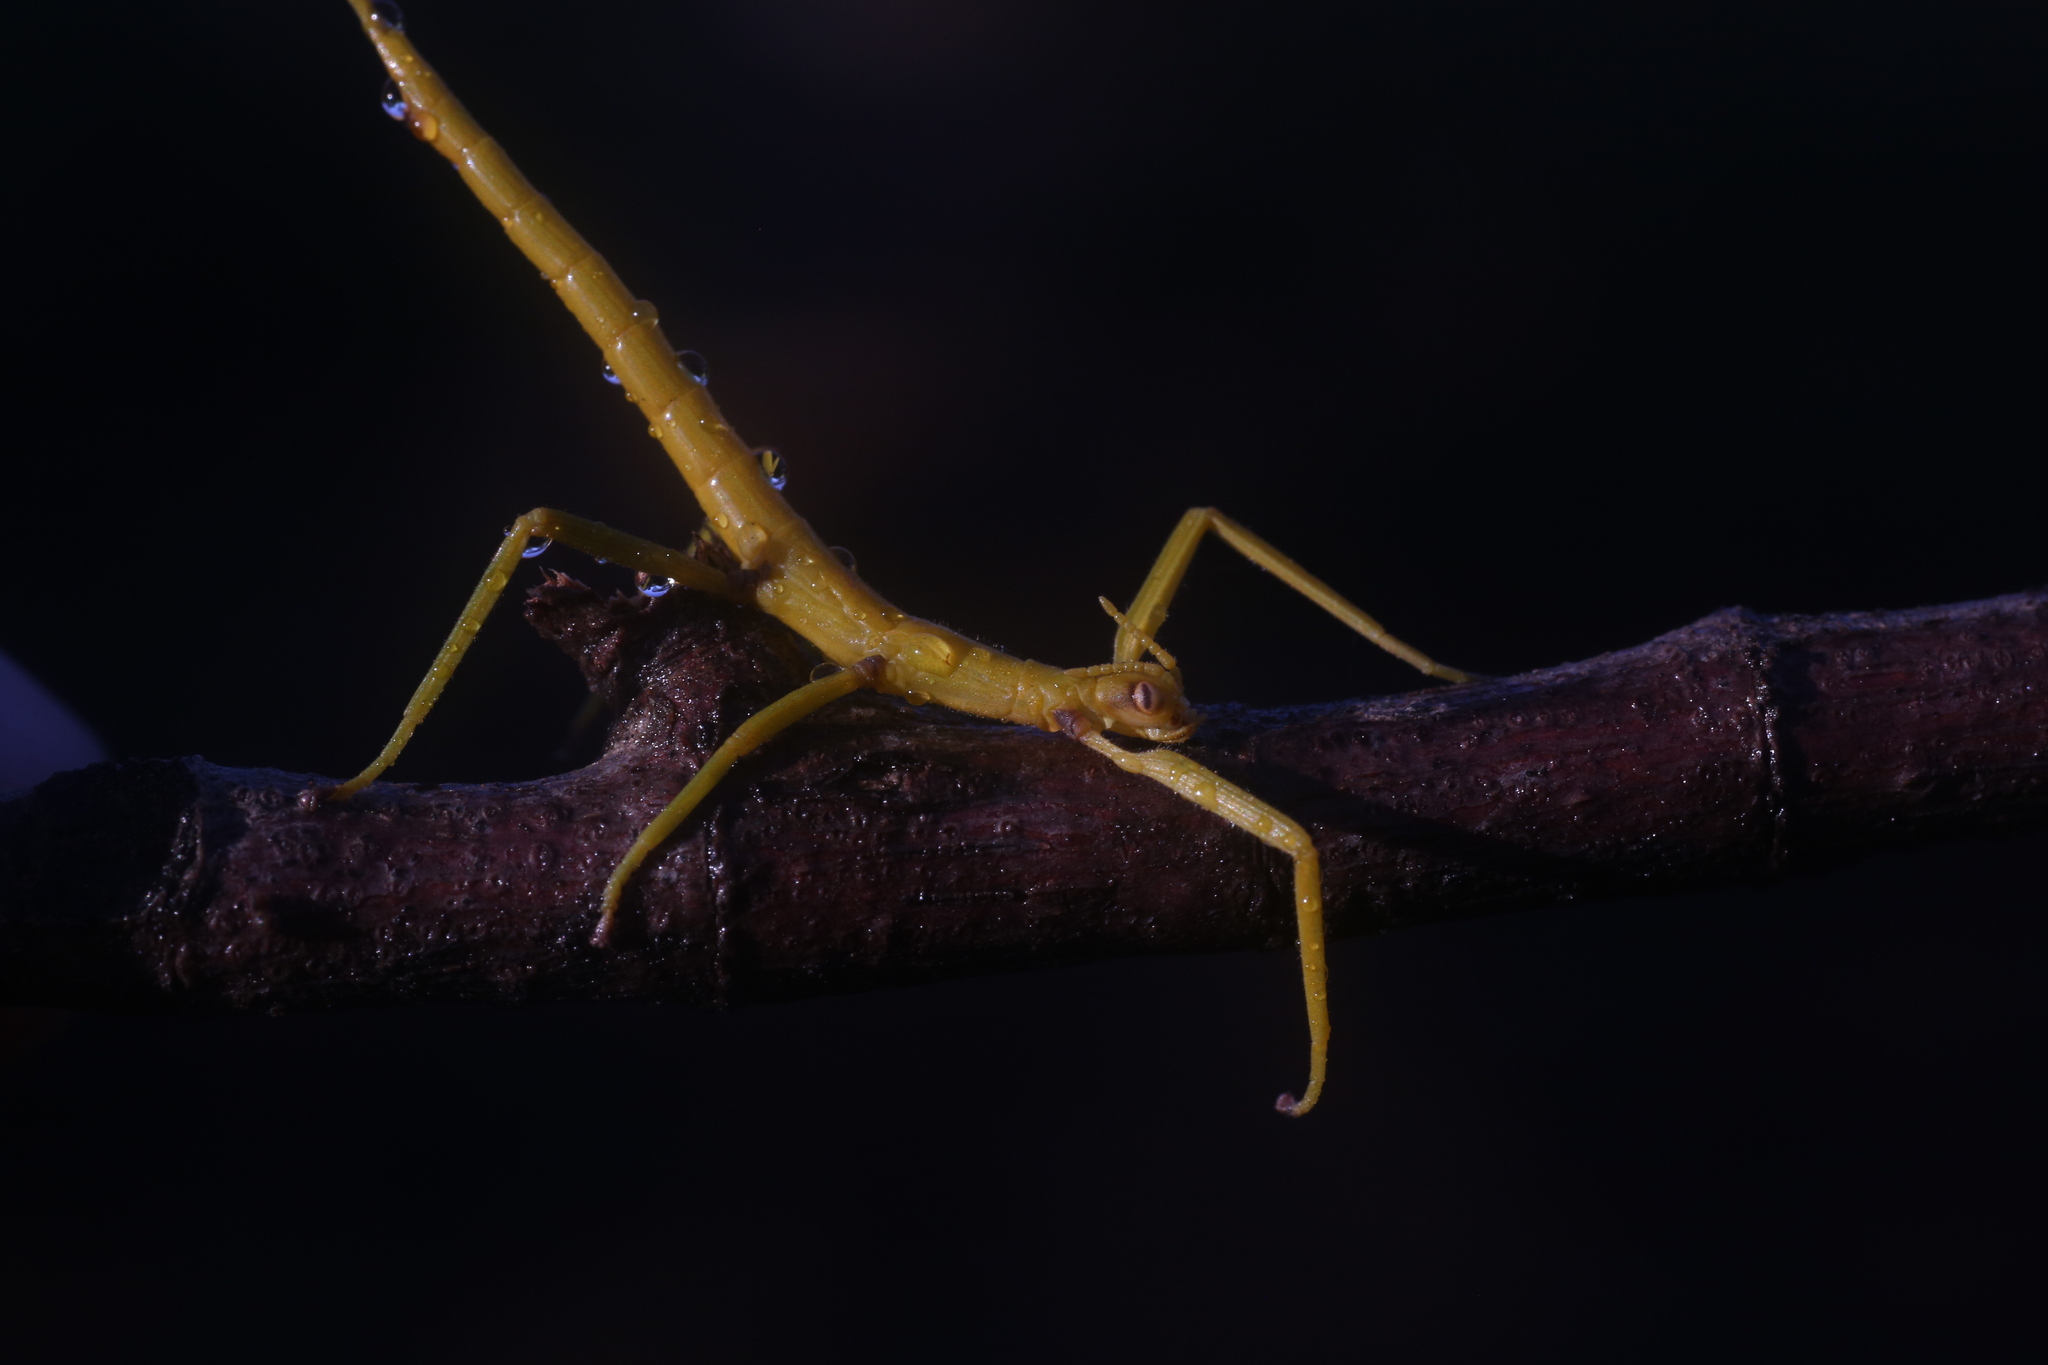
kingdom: Animalia
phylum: Arthropoda
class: Insecta
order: Phasmida
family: Phasmatidae
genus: Podacanthus
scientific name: Podacanthus keyi
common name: Key's stick-insect
